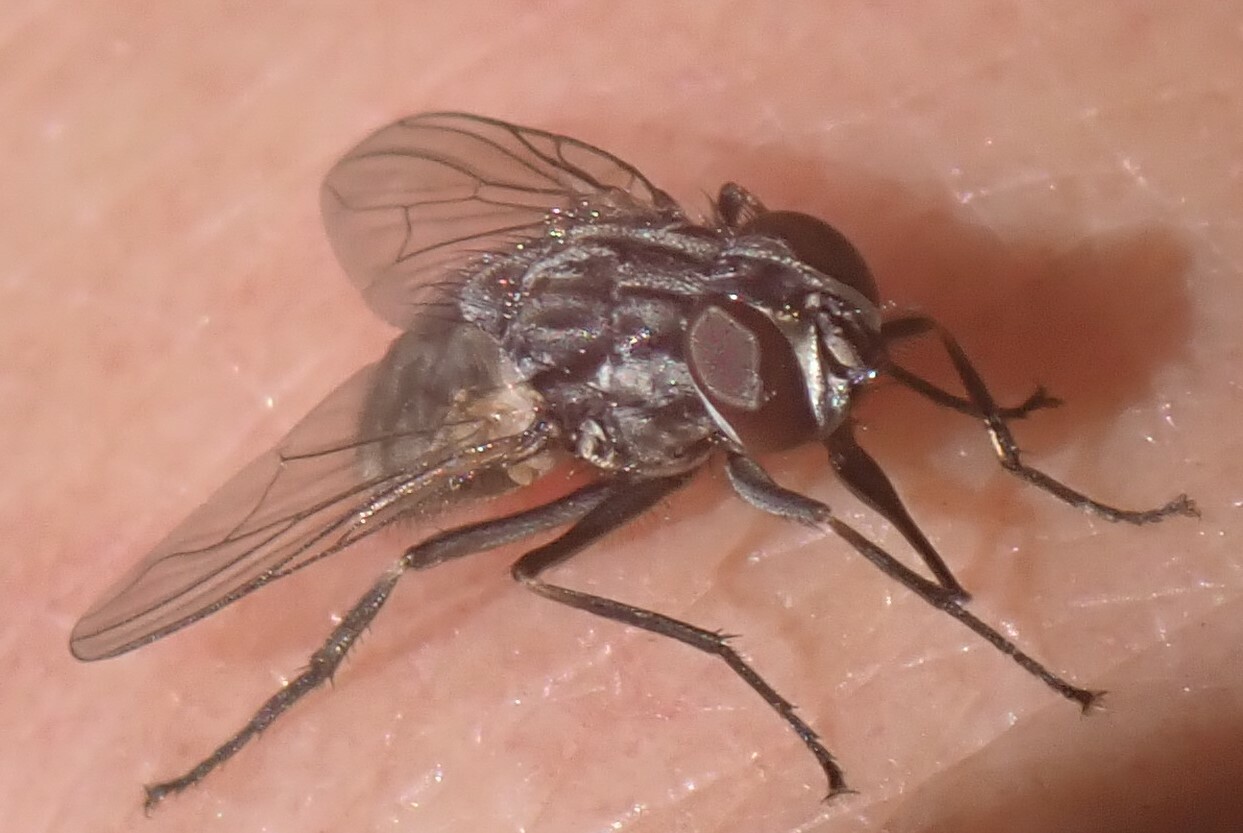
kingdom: Animalia
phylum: Arthropoda
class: Insecta
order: Diptera
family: Muscidae
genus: Stomoxys
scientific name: Stomoxys calcitrans
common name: Stable fly
